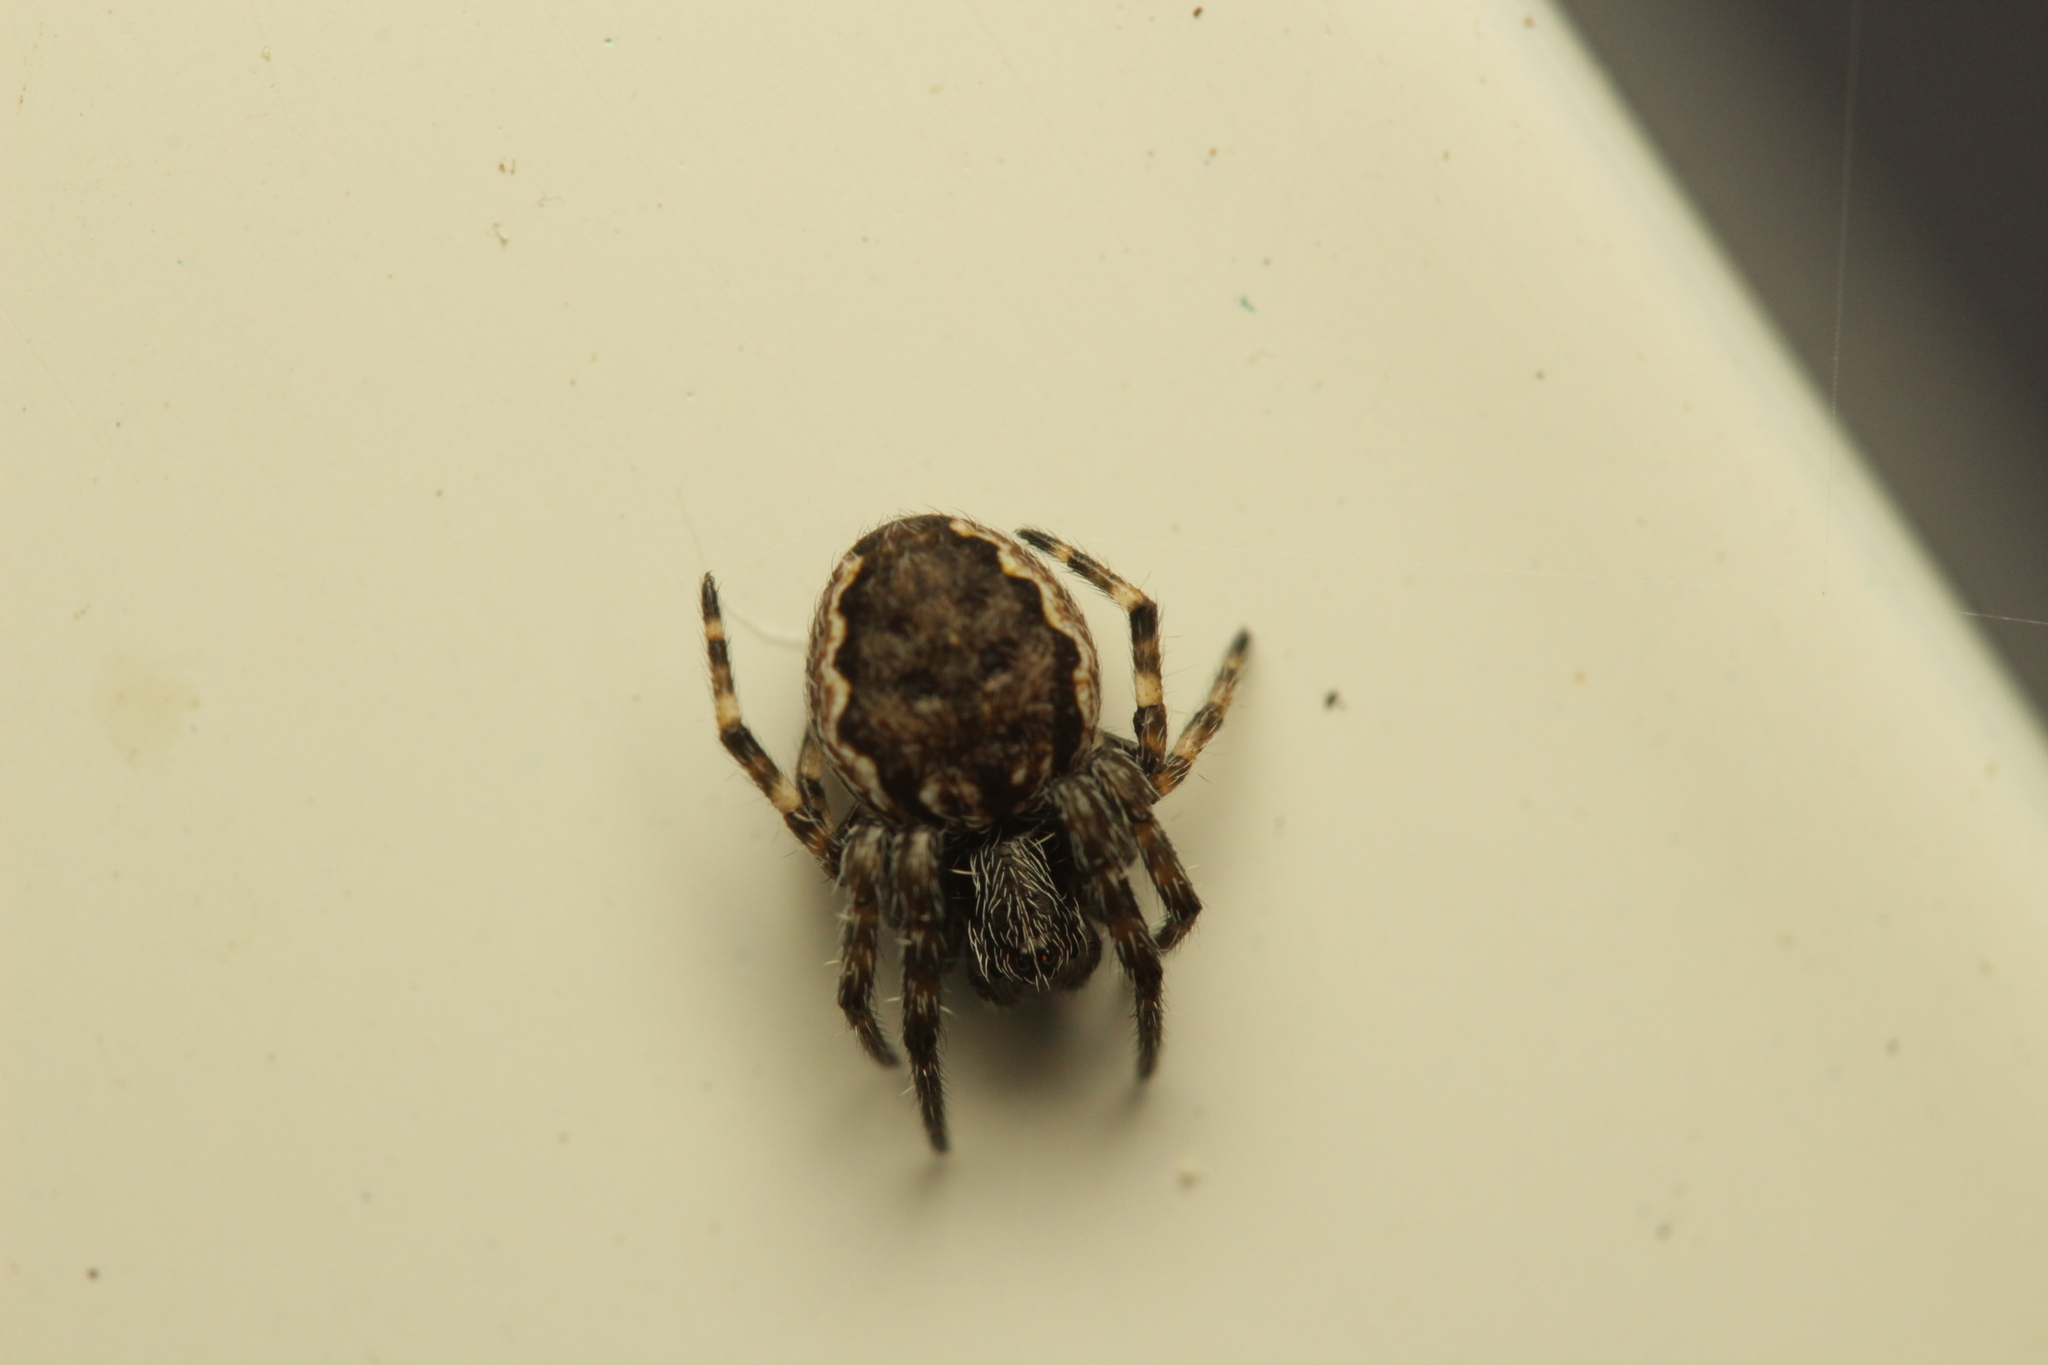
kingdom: Animalia
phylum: Arthropoda
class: Arachnida
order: Araneae
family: Araneidae
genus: Nuctenea
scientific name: Nuctenea umbratica
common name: Toad spider
